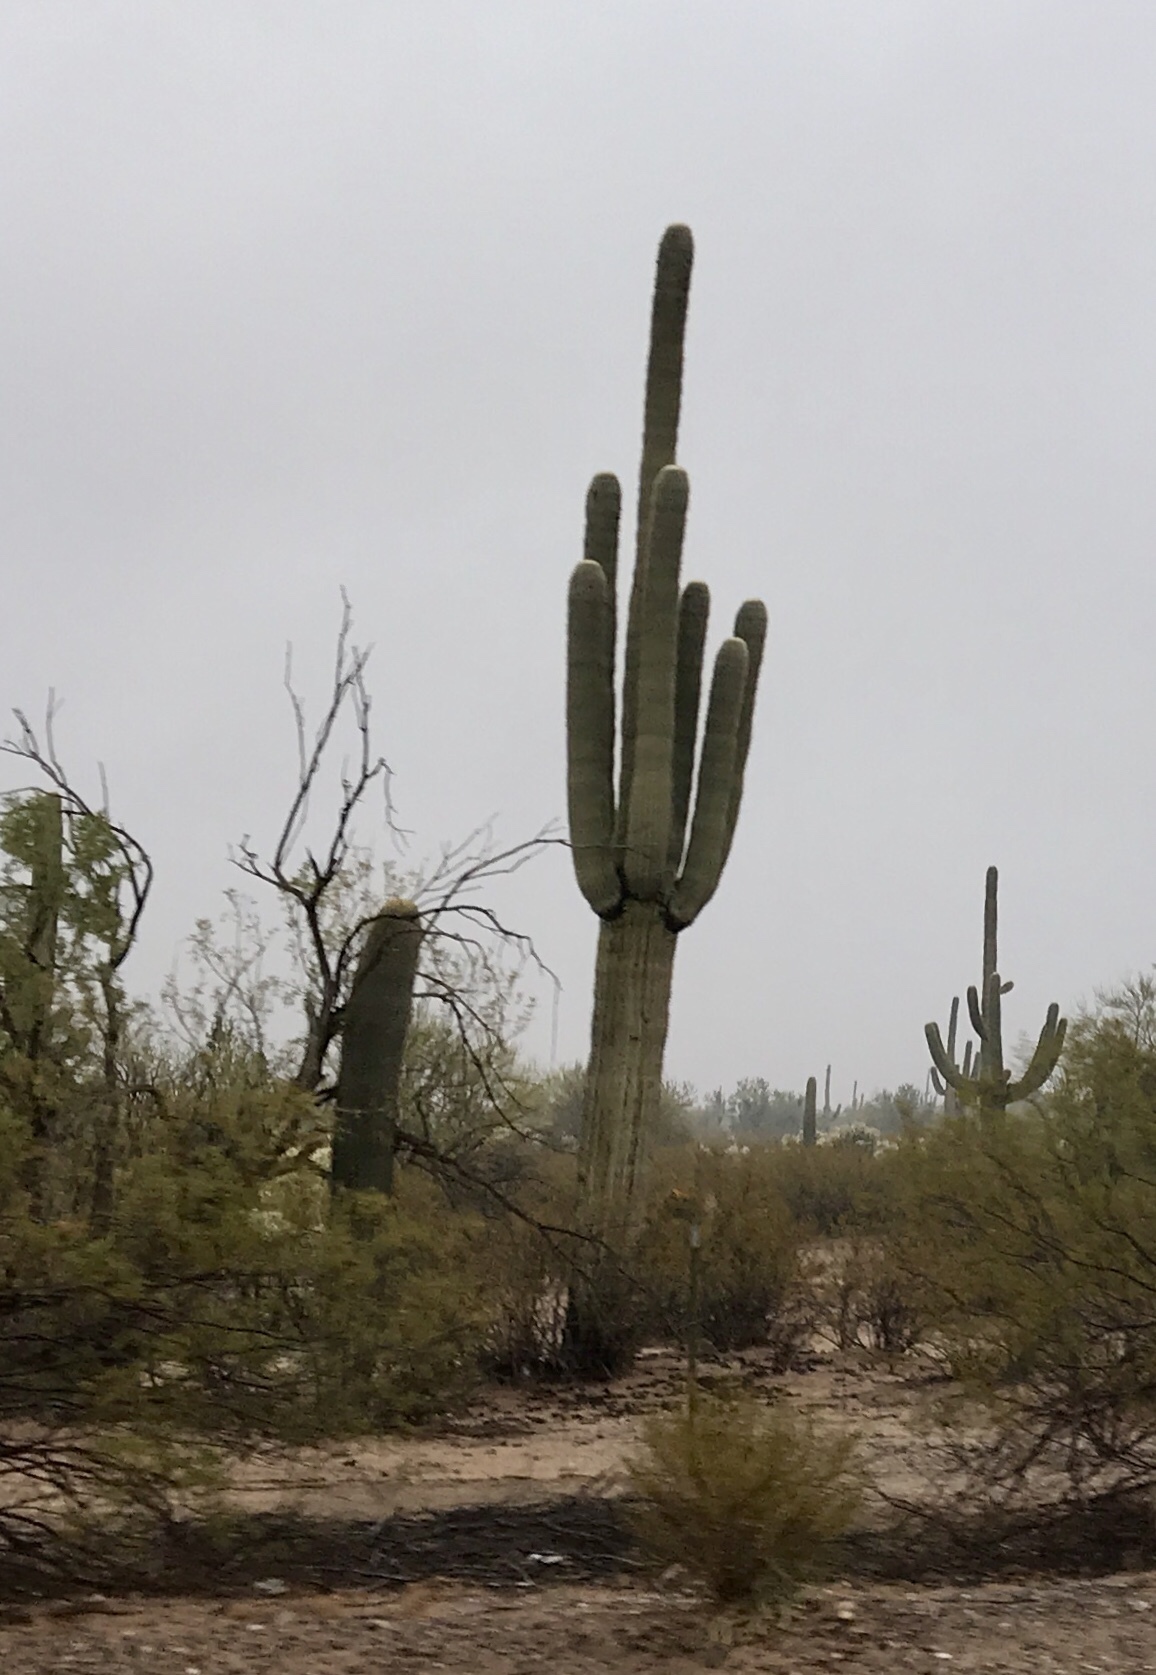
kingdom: Plantae
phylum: Tracheophyta
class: Magnoliopsida
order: Caryophyllales
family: Cactaceae
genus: Carnegiea
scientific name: Carnegiea gigantea
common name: Saguaro
